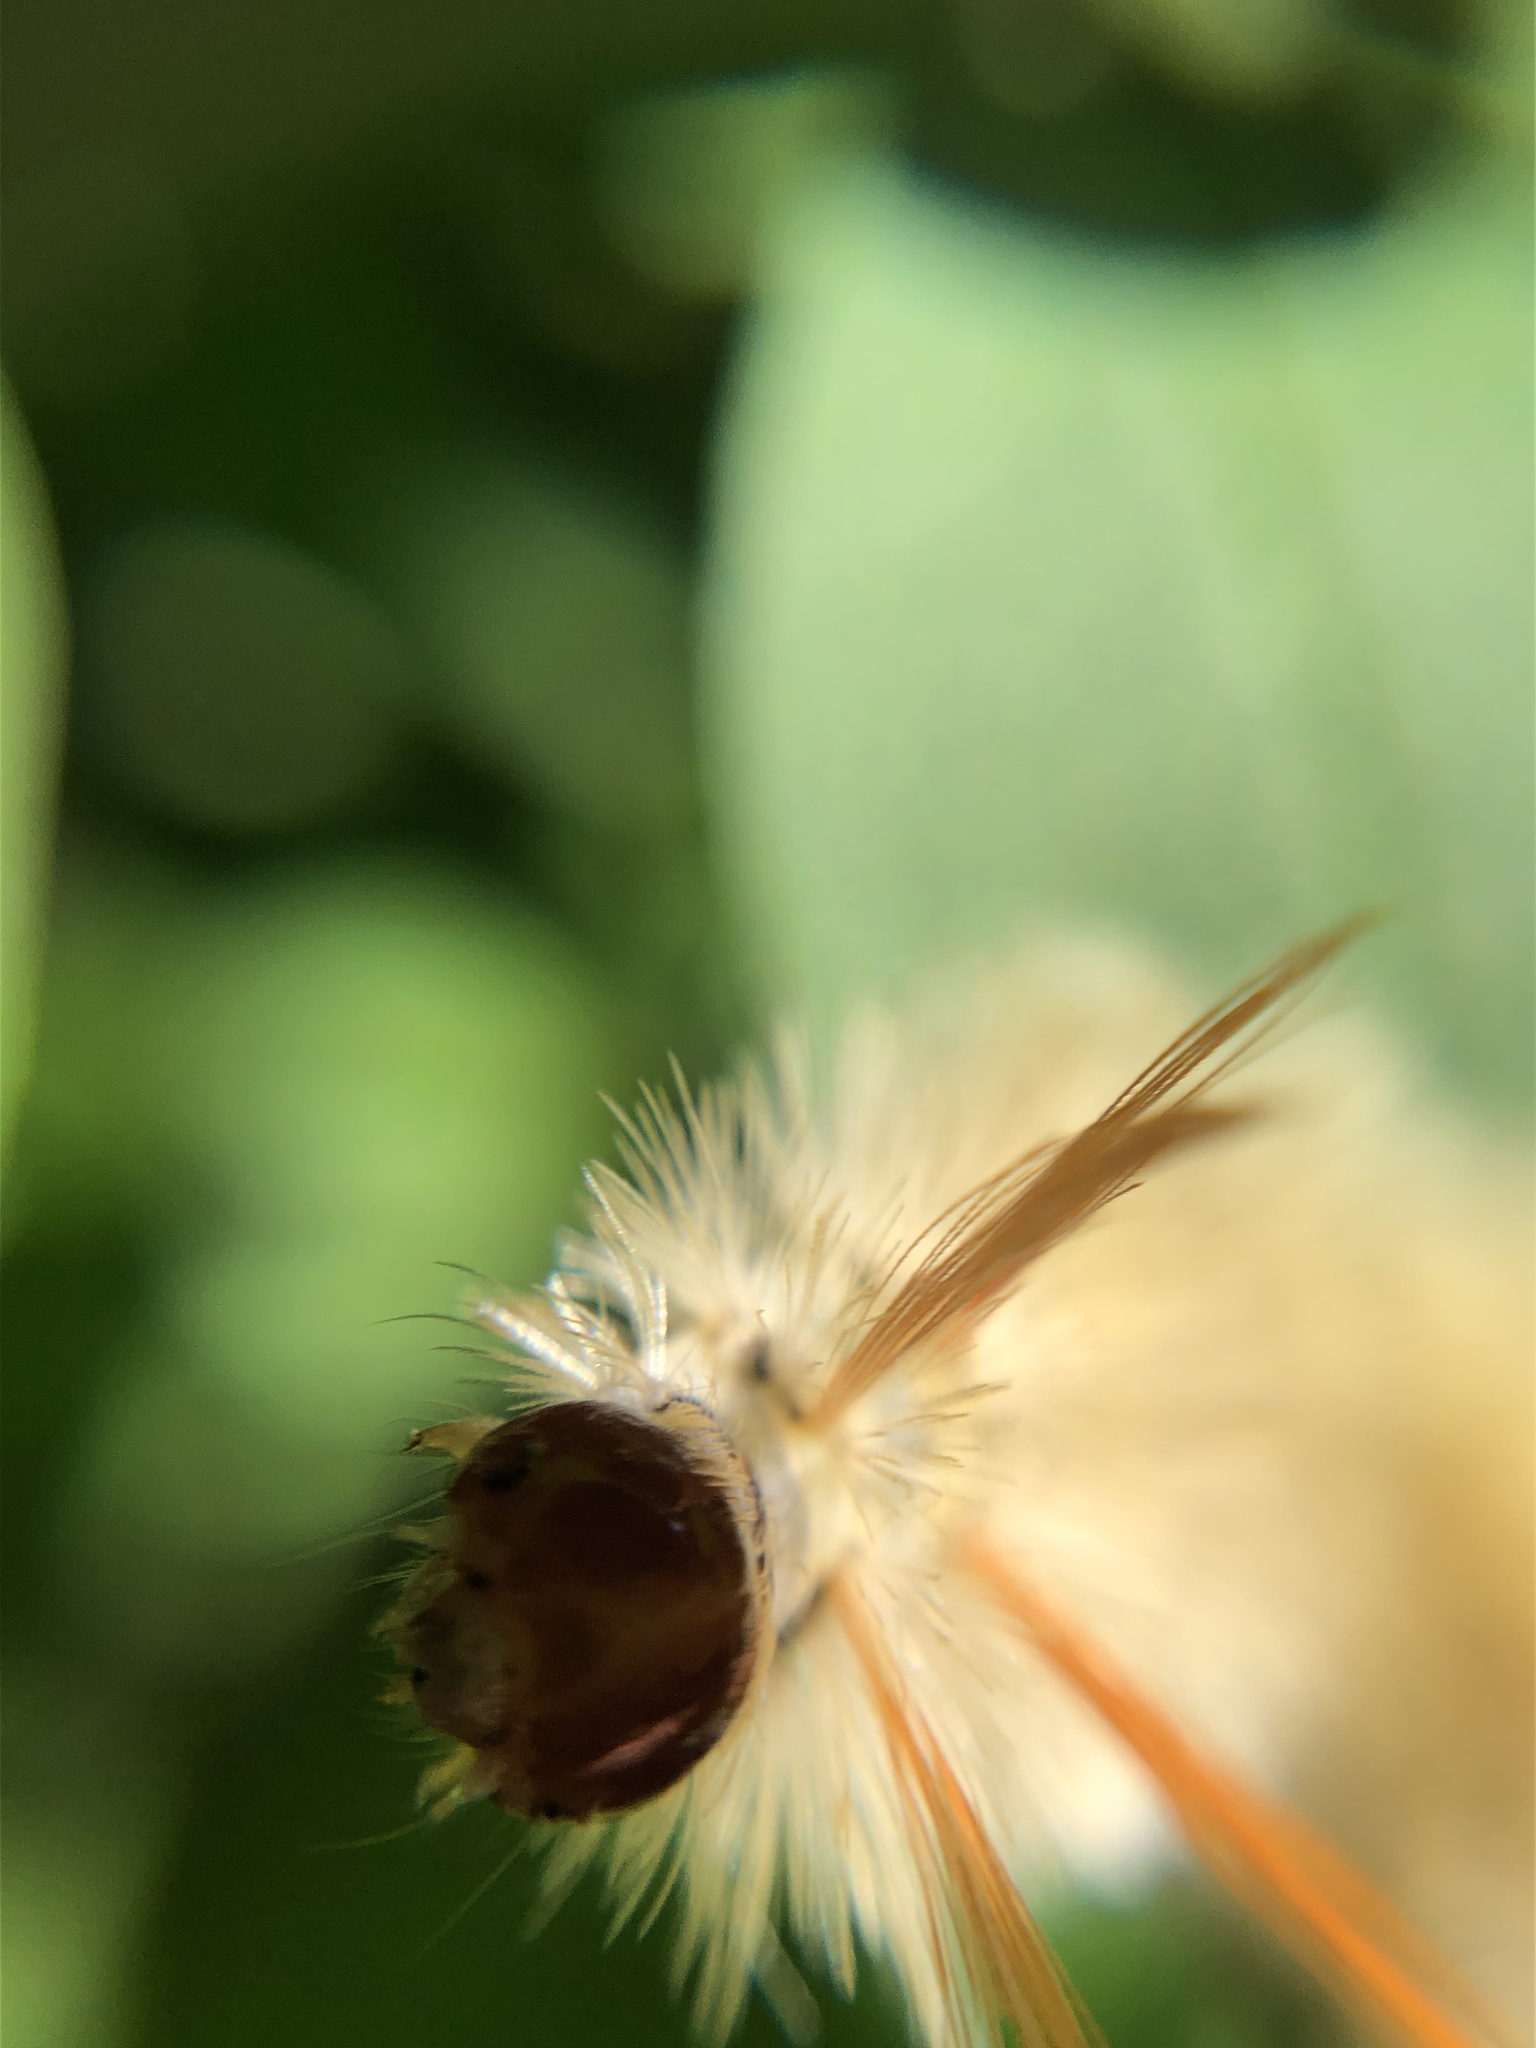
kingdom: Animalia
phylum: Arthropoda
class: Insecta
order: Lepidoptera
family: Erebidae
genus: Halysidota
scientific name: Halysidota harrisii
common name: Sycamore tussock moth
